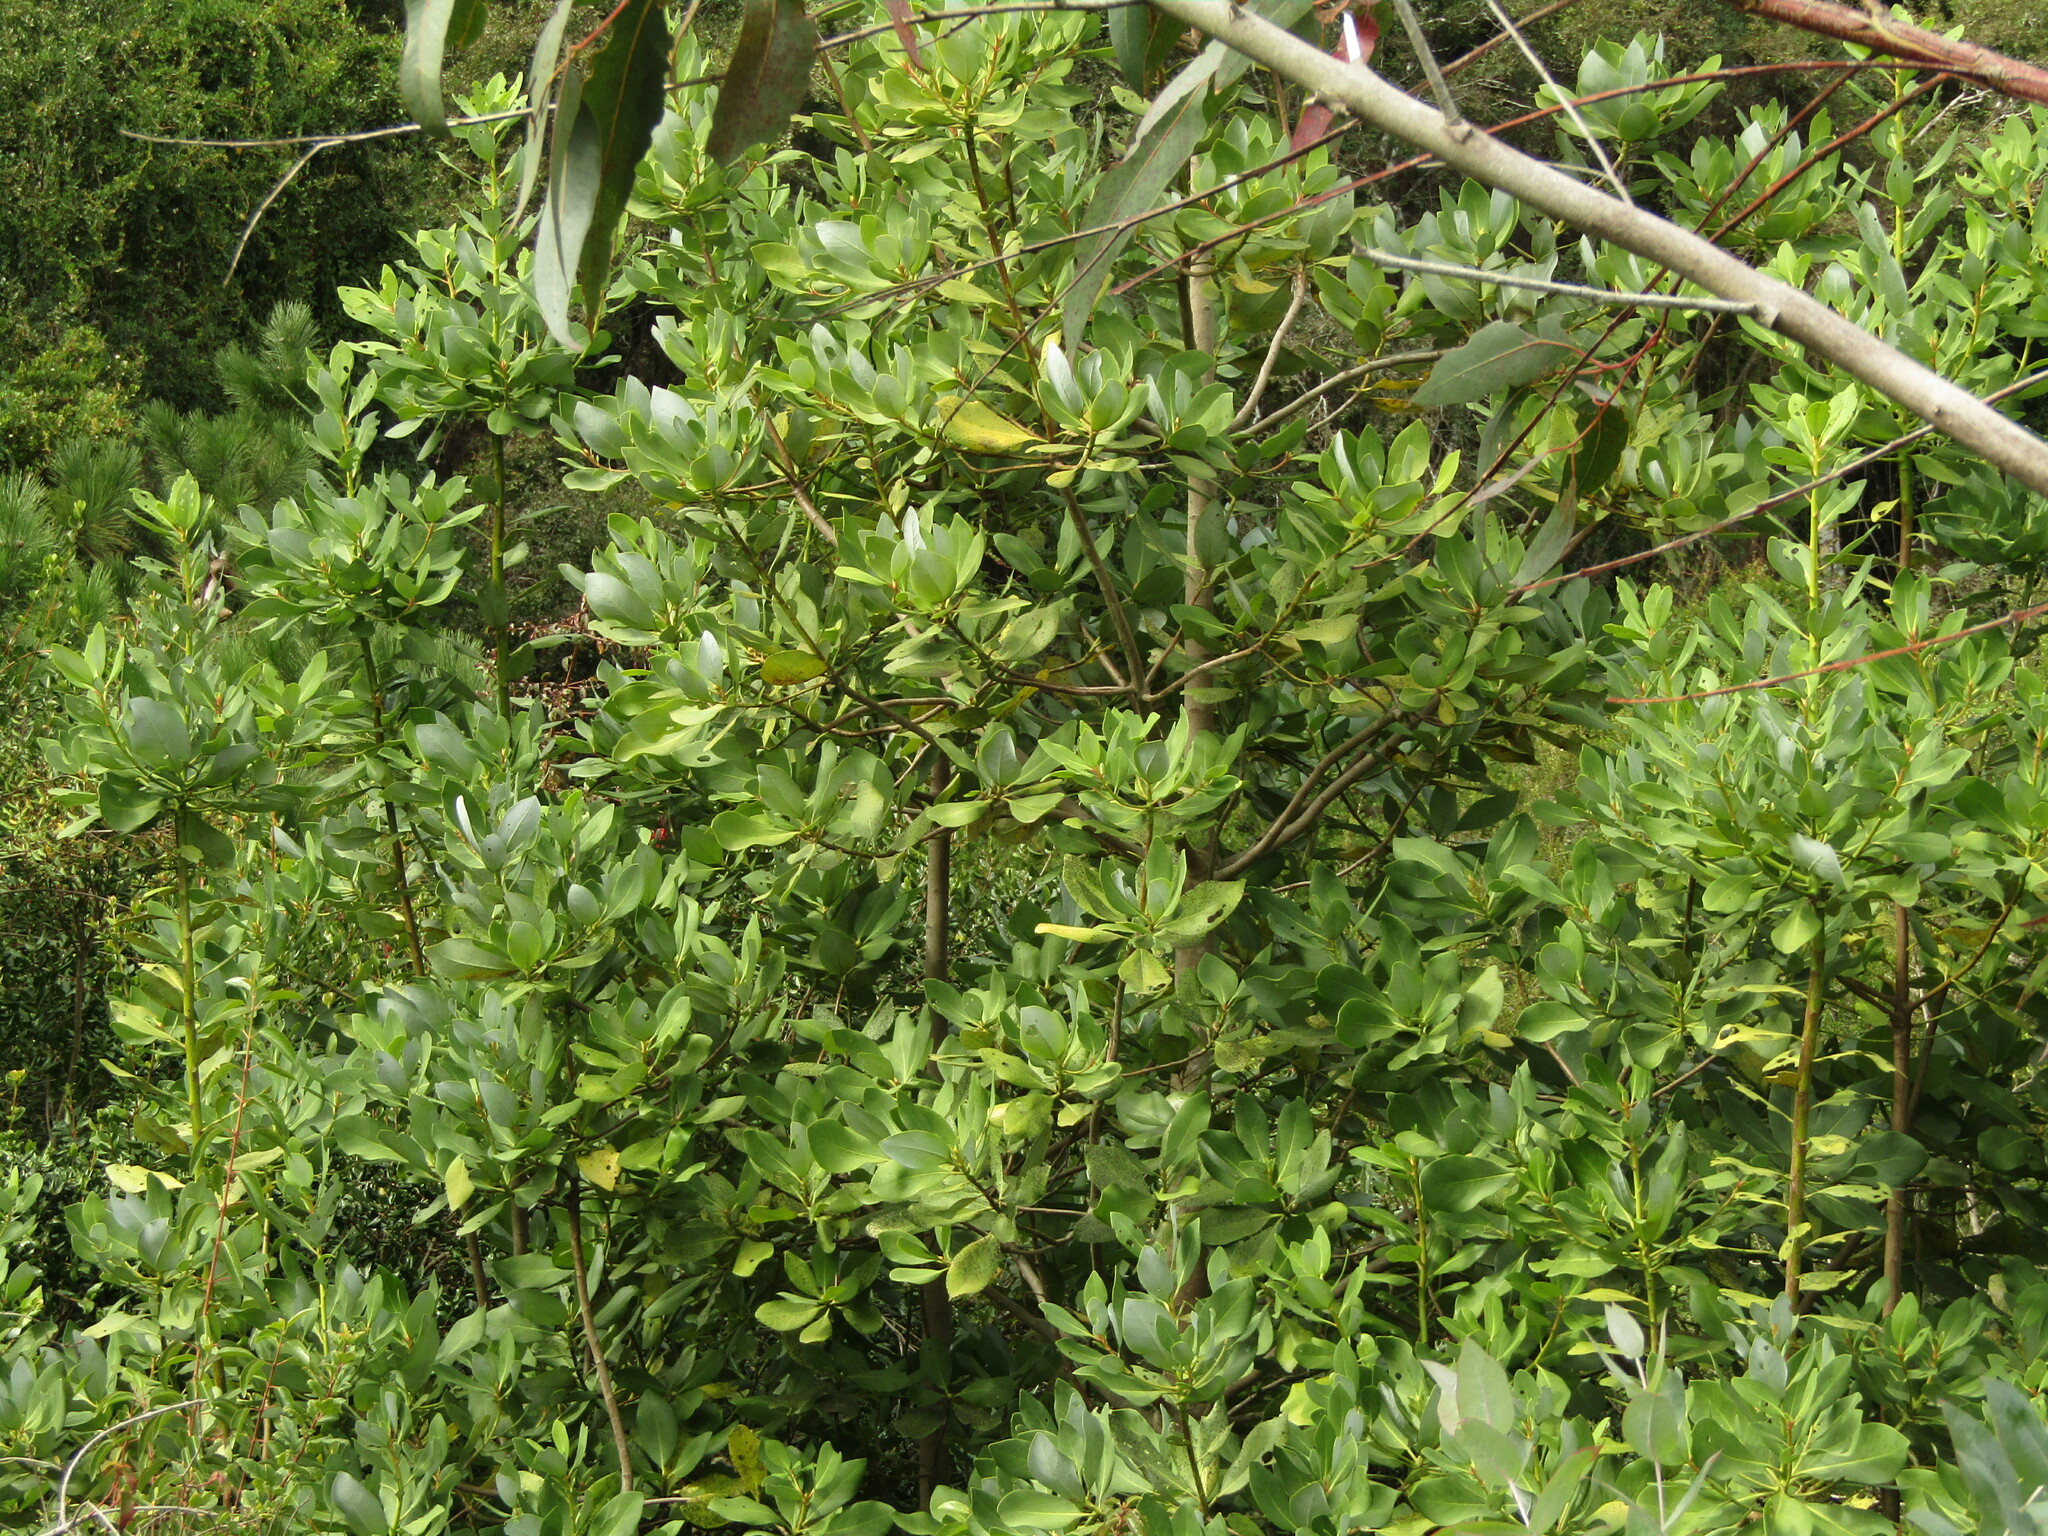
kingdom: Plantae
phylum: Tracheophyta
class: Magnoliopsida
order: Canellales
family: Winteraceae
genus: Drimys
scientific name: Drimys winteri
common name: Winter's-bark
